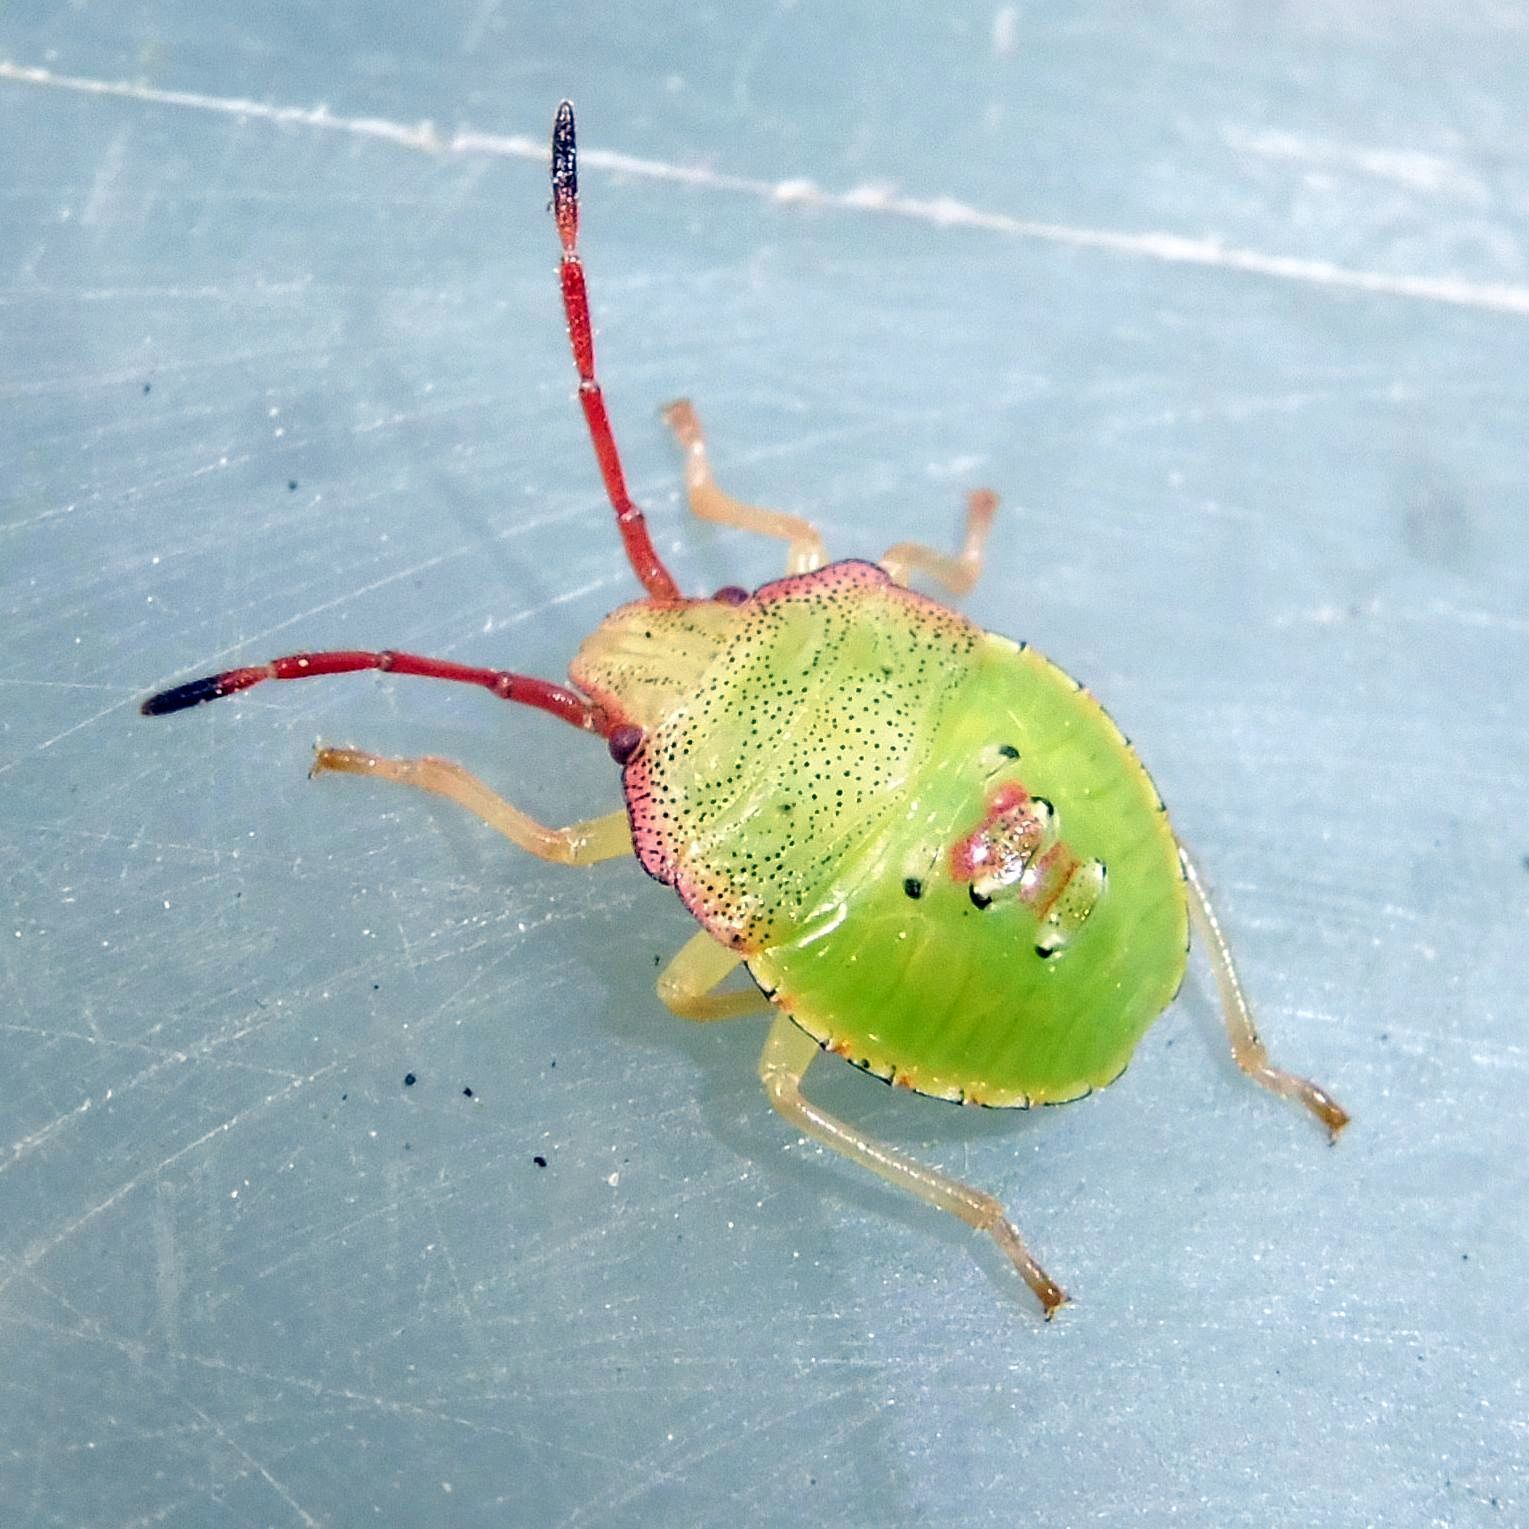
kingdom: Animalia
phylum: Arthropoda
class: Insecta
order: Hemiptera
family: Acanthosomatidae
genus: Acanthosoma
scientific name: Acanthosoma haemorrhoidale
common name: Hawthorn shieldbug
